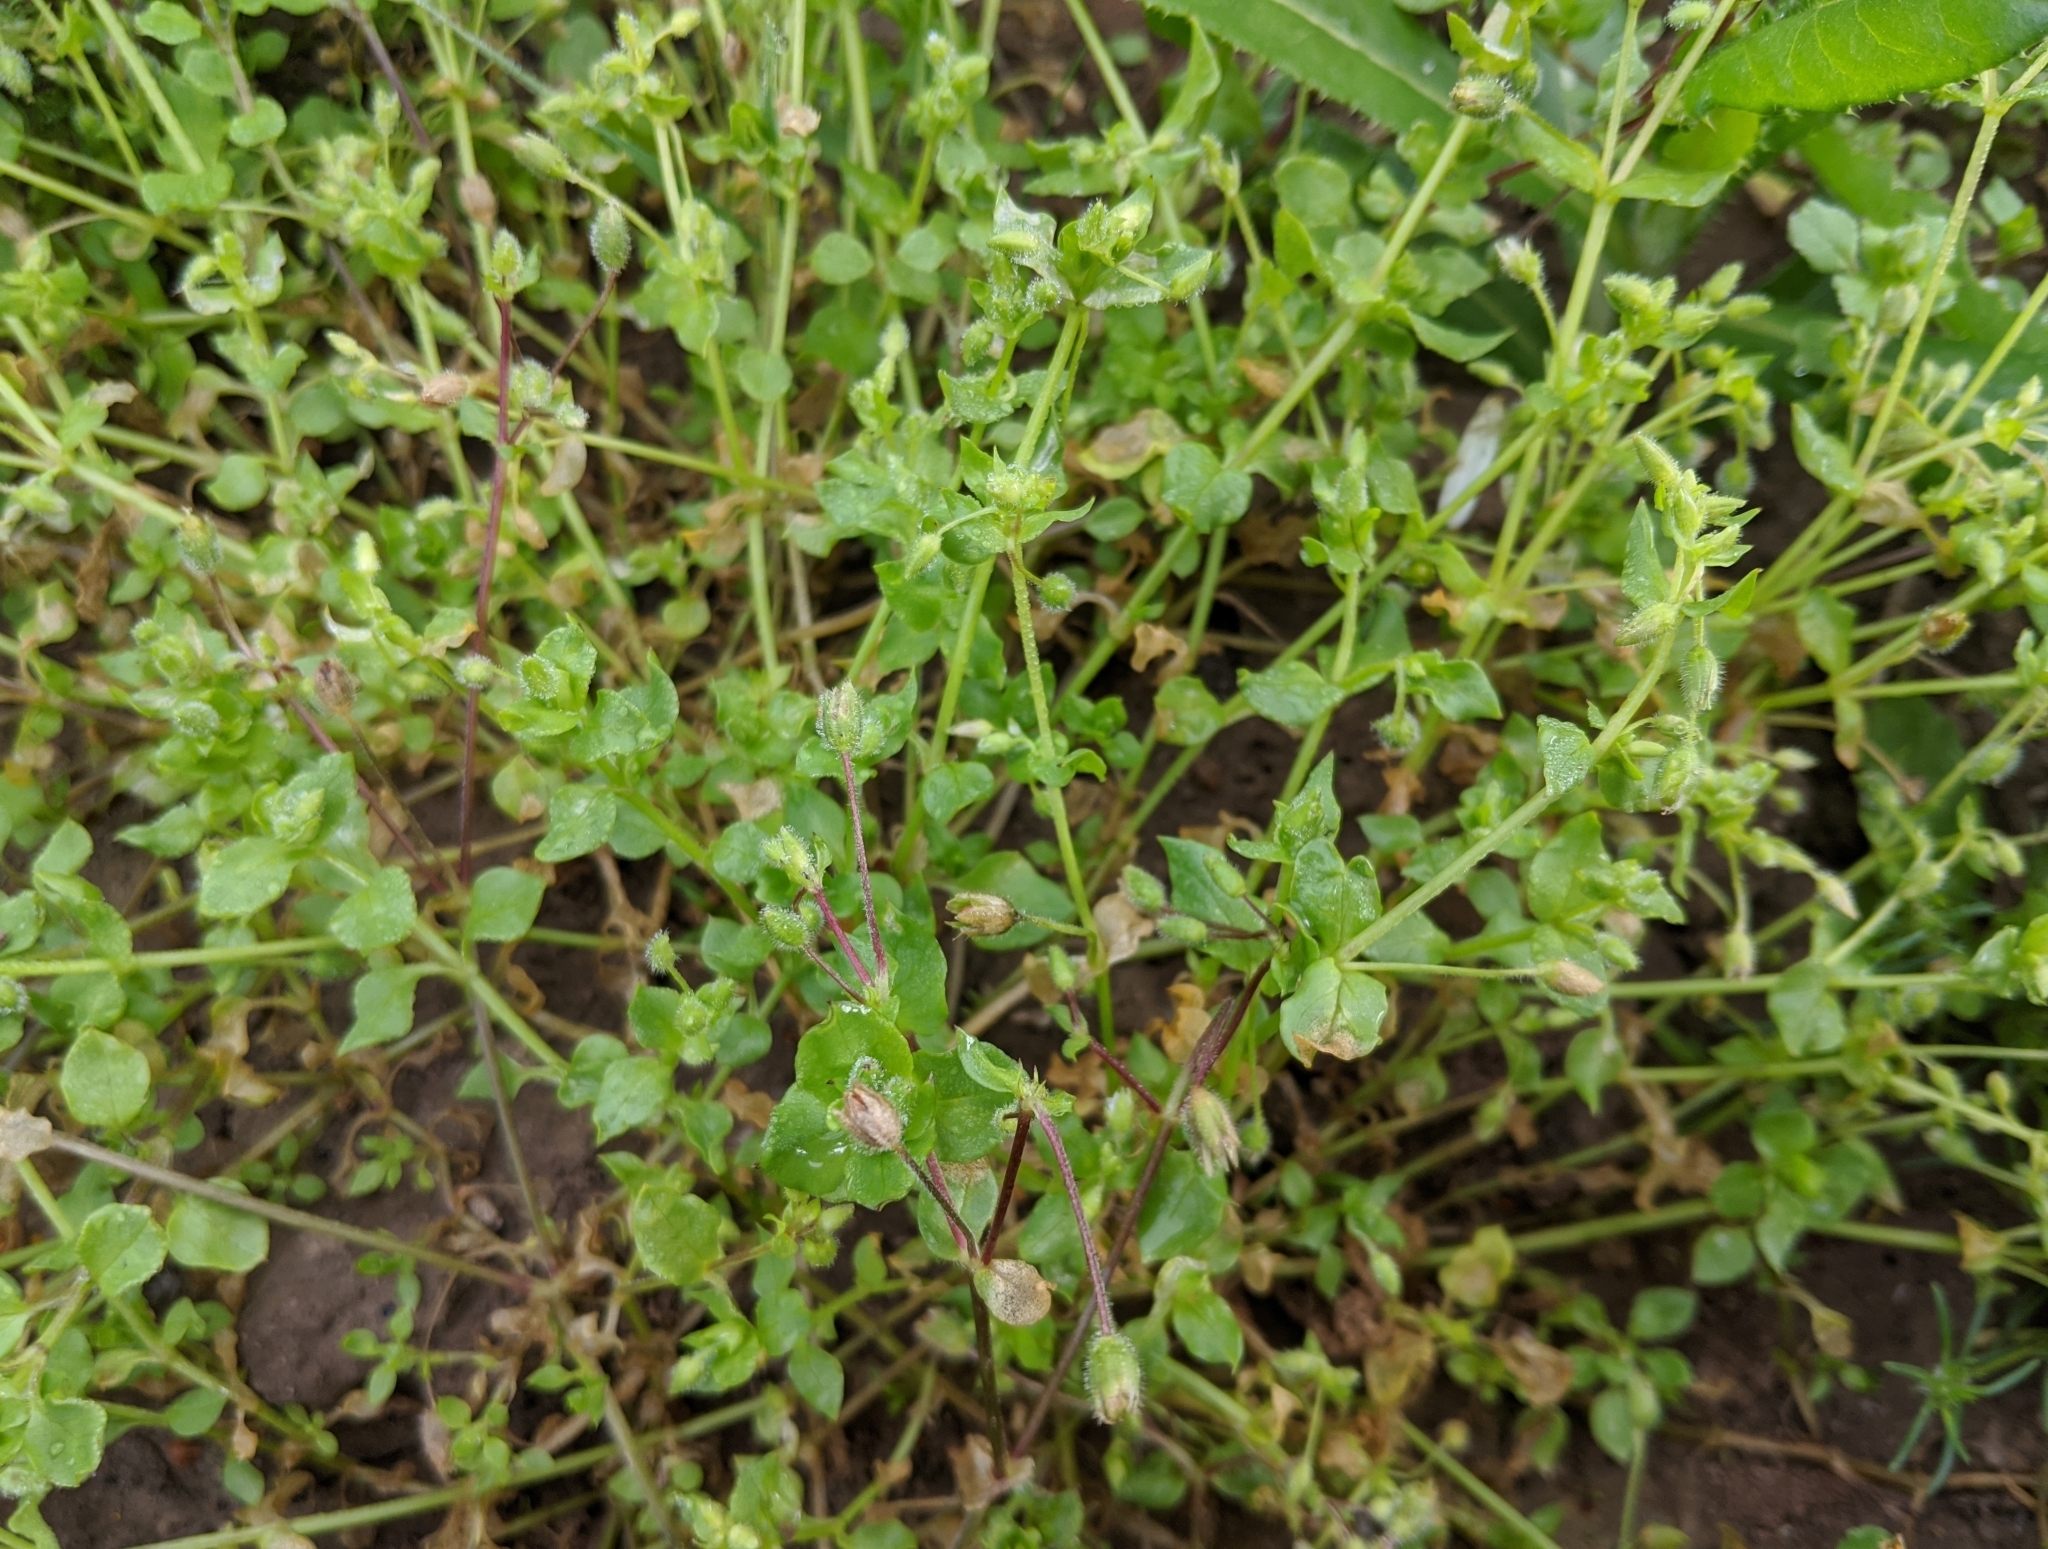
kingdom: Plantae
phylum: Tracheophyta
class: Magnoliopsida
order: Caryophyllales
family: Caryophyllaceae
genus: Stellaria
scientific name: Stellaria media
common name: Common chickweed
